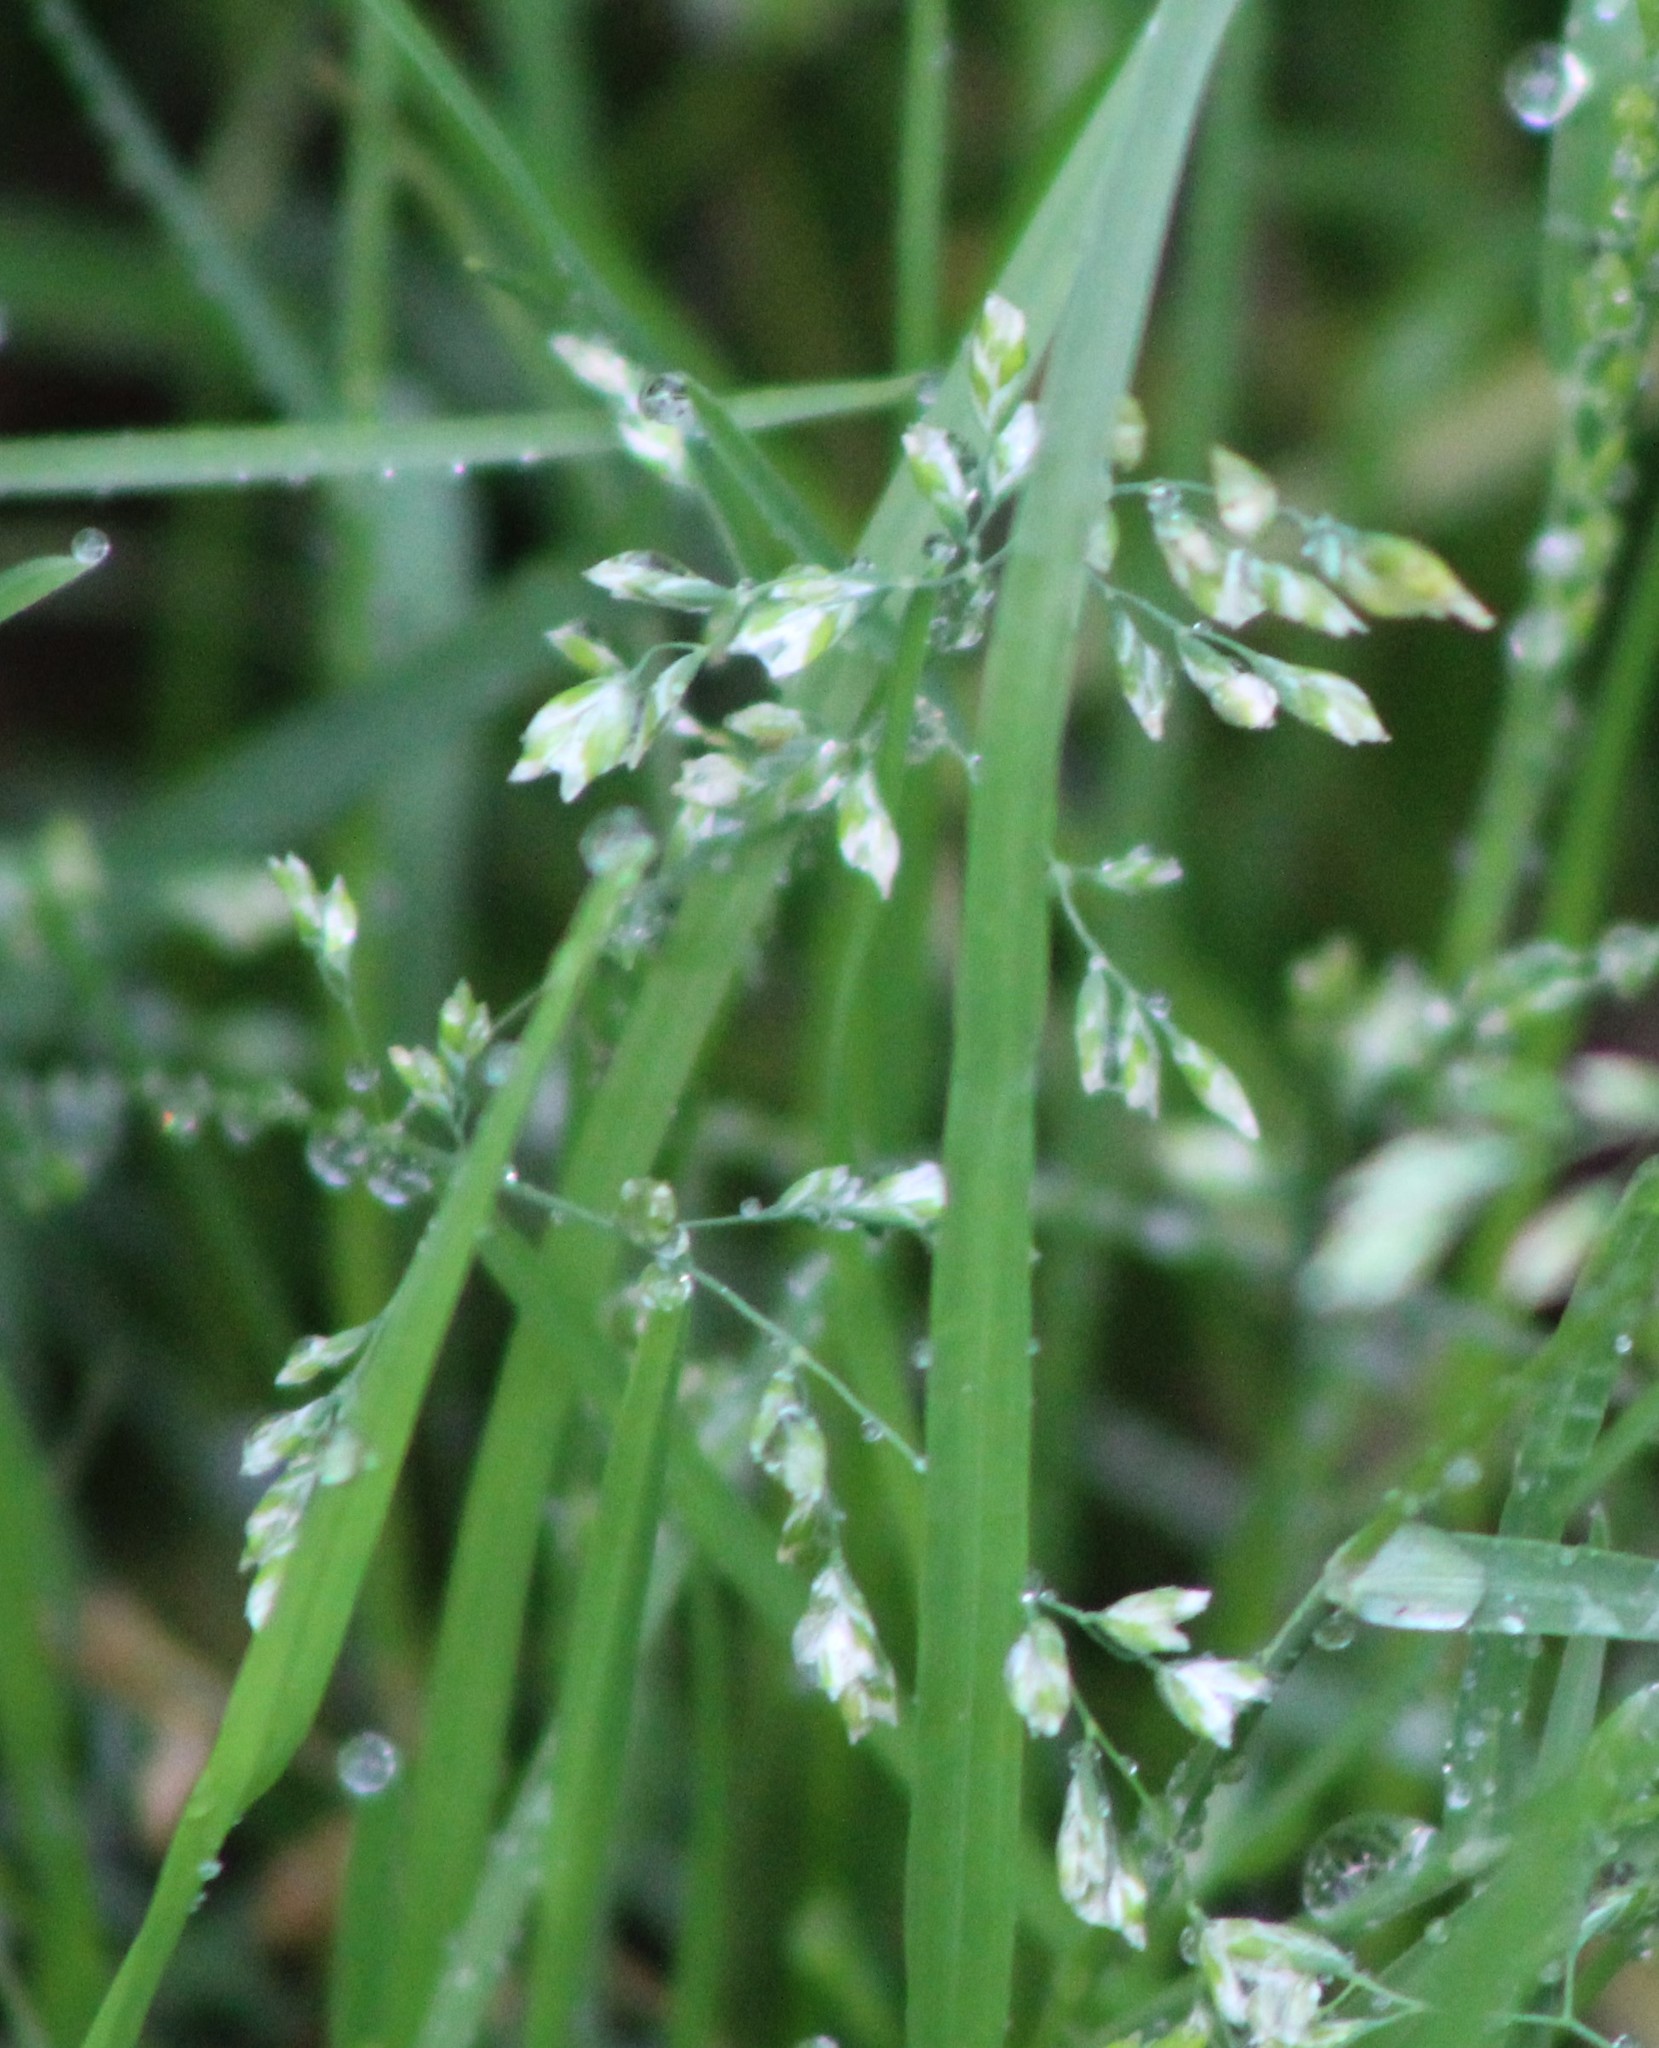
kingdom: Plantae
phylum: Tracheophyta
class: Liliopsida
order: Poales
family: Poaceae
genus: Poa
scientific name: Poa annua
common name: Annual bluegrass
